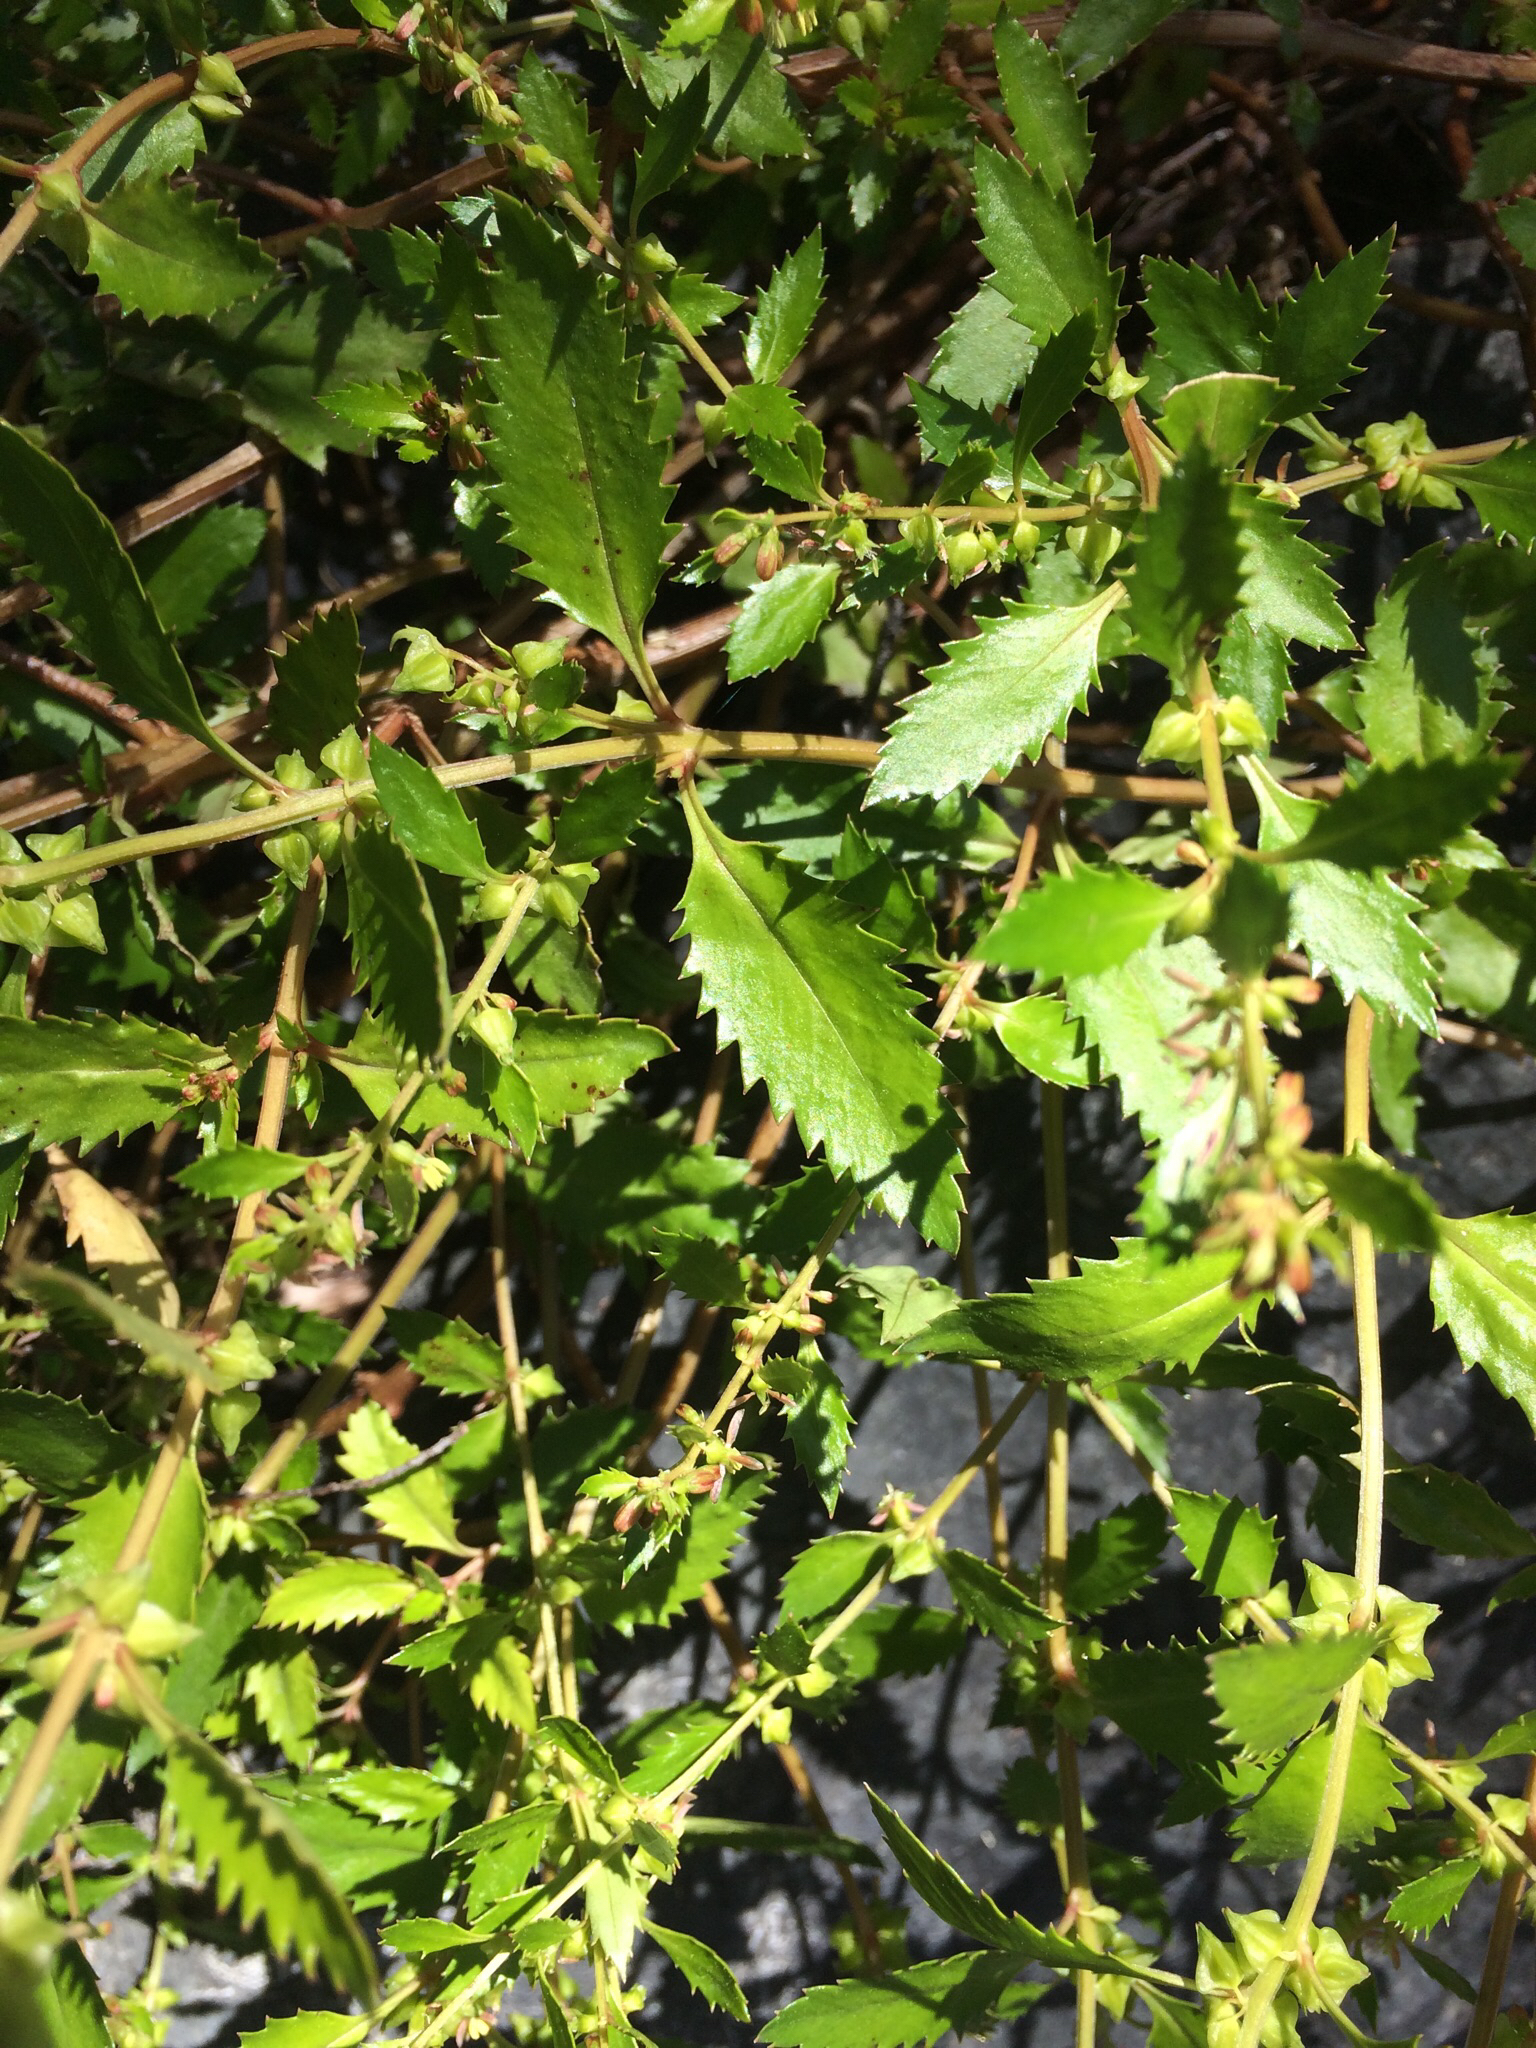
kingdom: Plantae
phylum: Tracheophyta
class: Magnoliopsida
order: Saxifragales
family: Haloragaceae
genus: Haloragis
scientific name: Haloragis erecta
